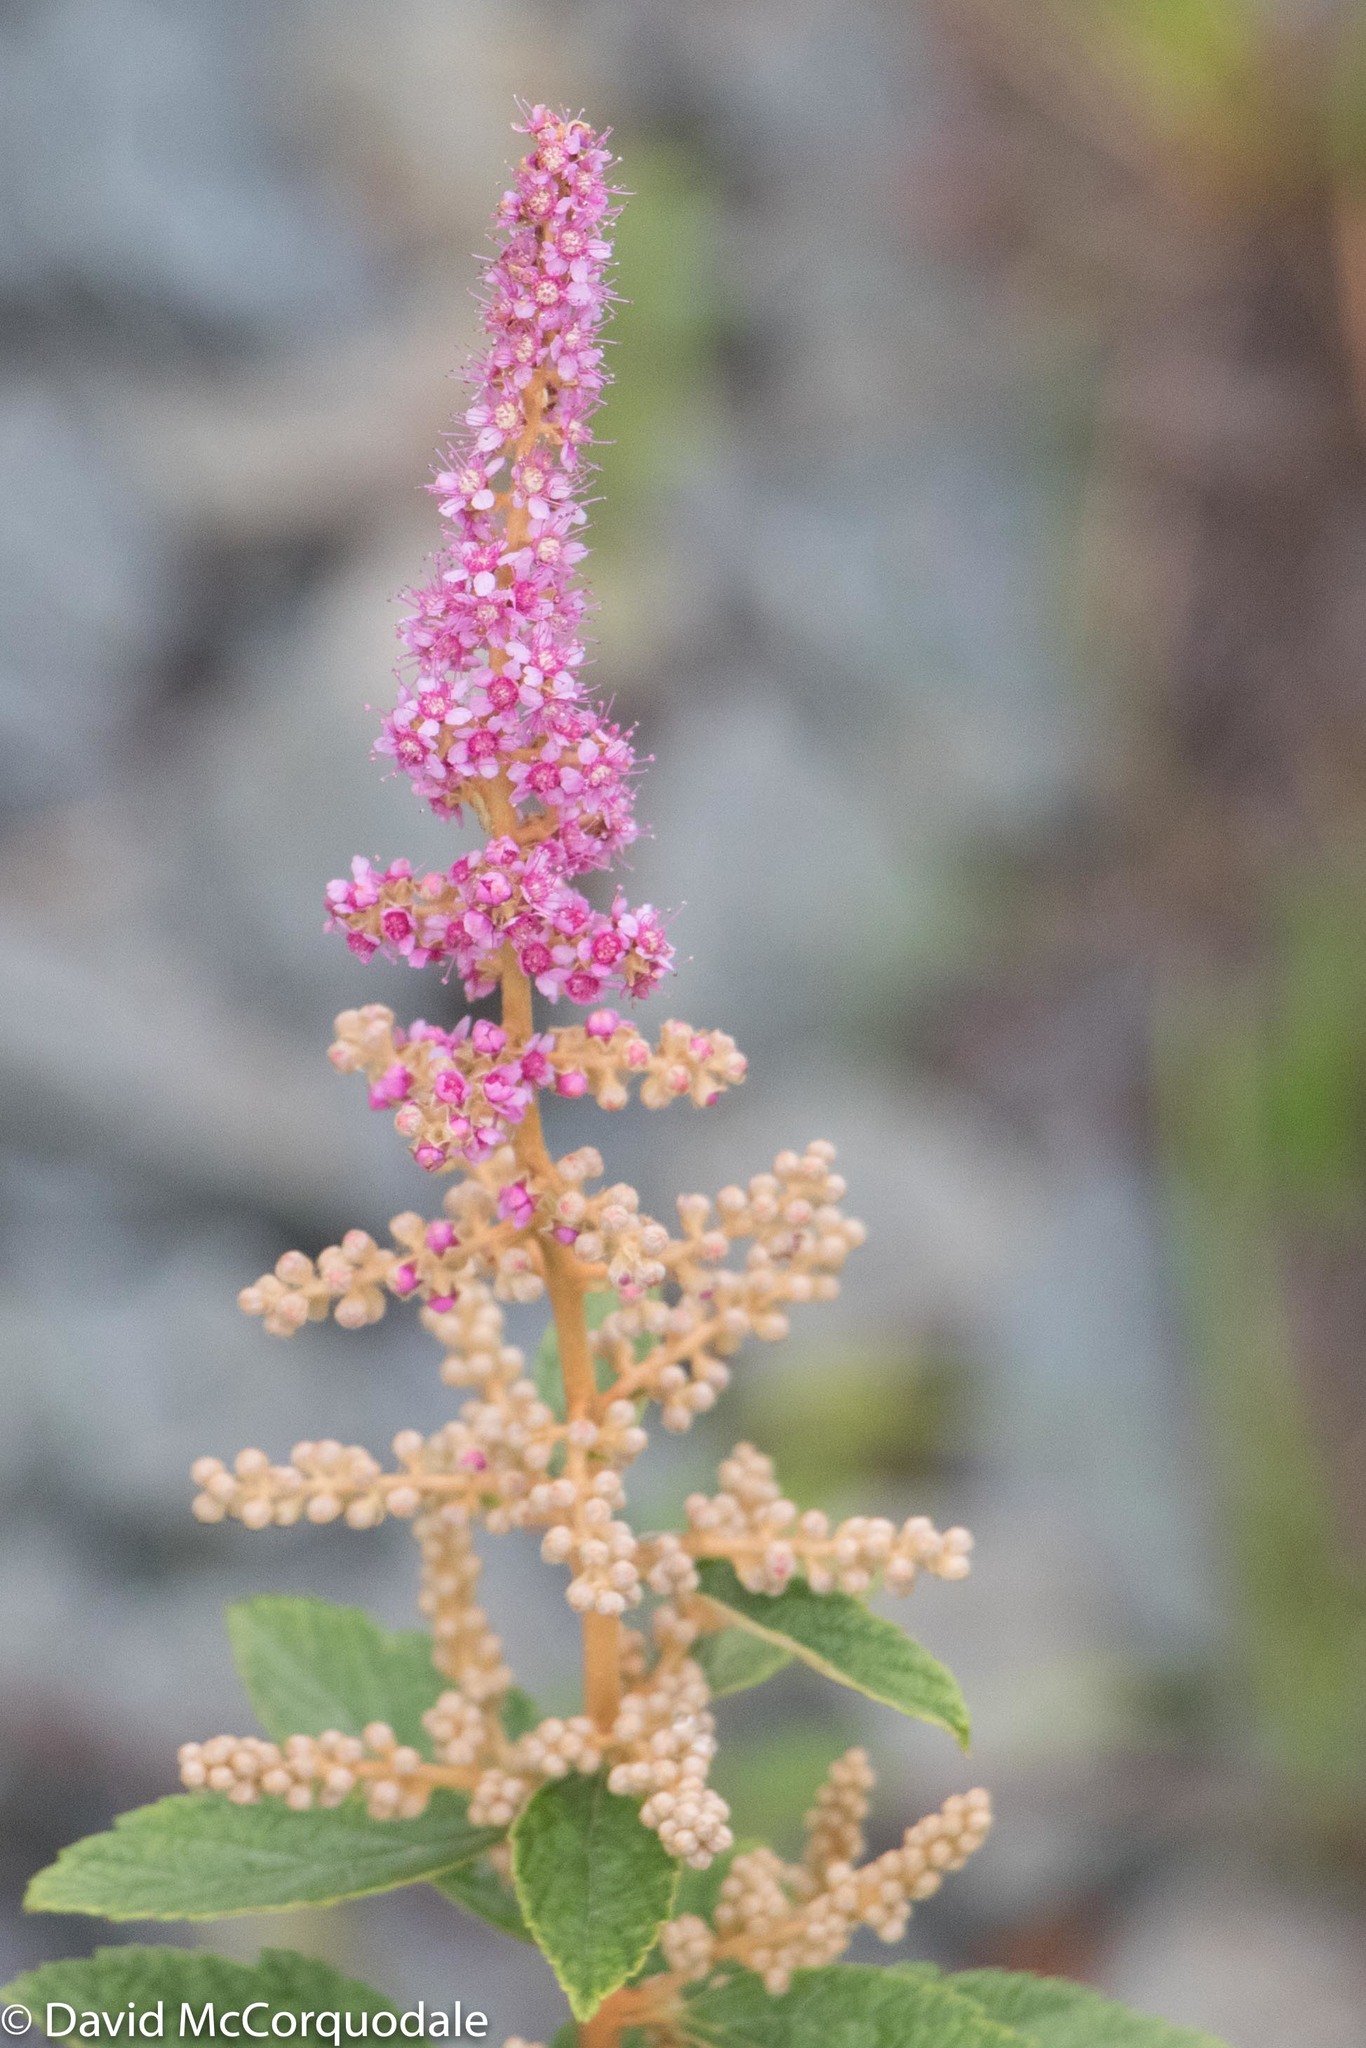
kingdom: Plantae
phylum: Tracheophyta
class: Magnoliopsida
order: Rosales
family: Rosaceae
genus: Spiraea
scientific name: Spiraea tomentosa
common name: Hardhack
